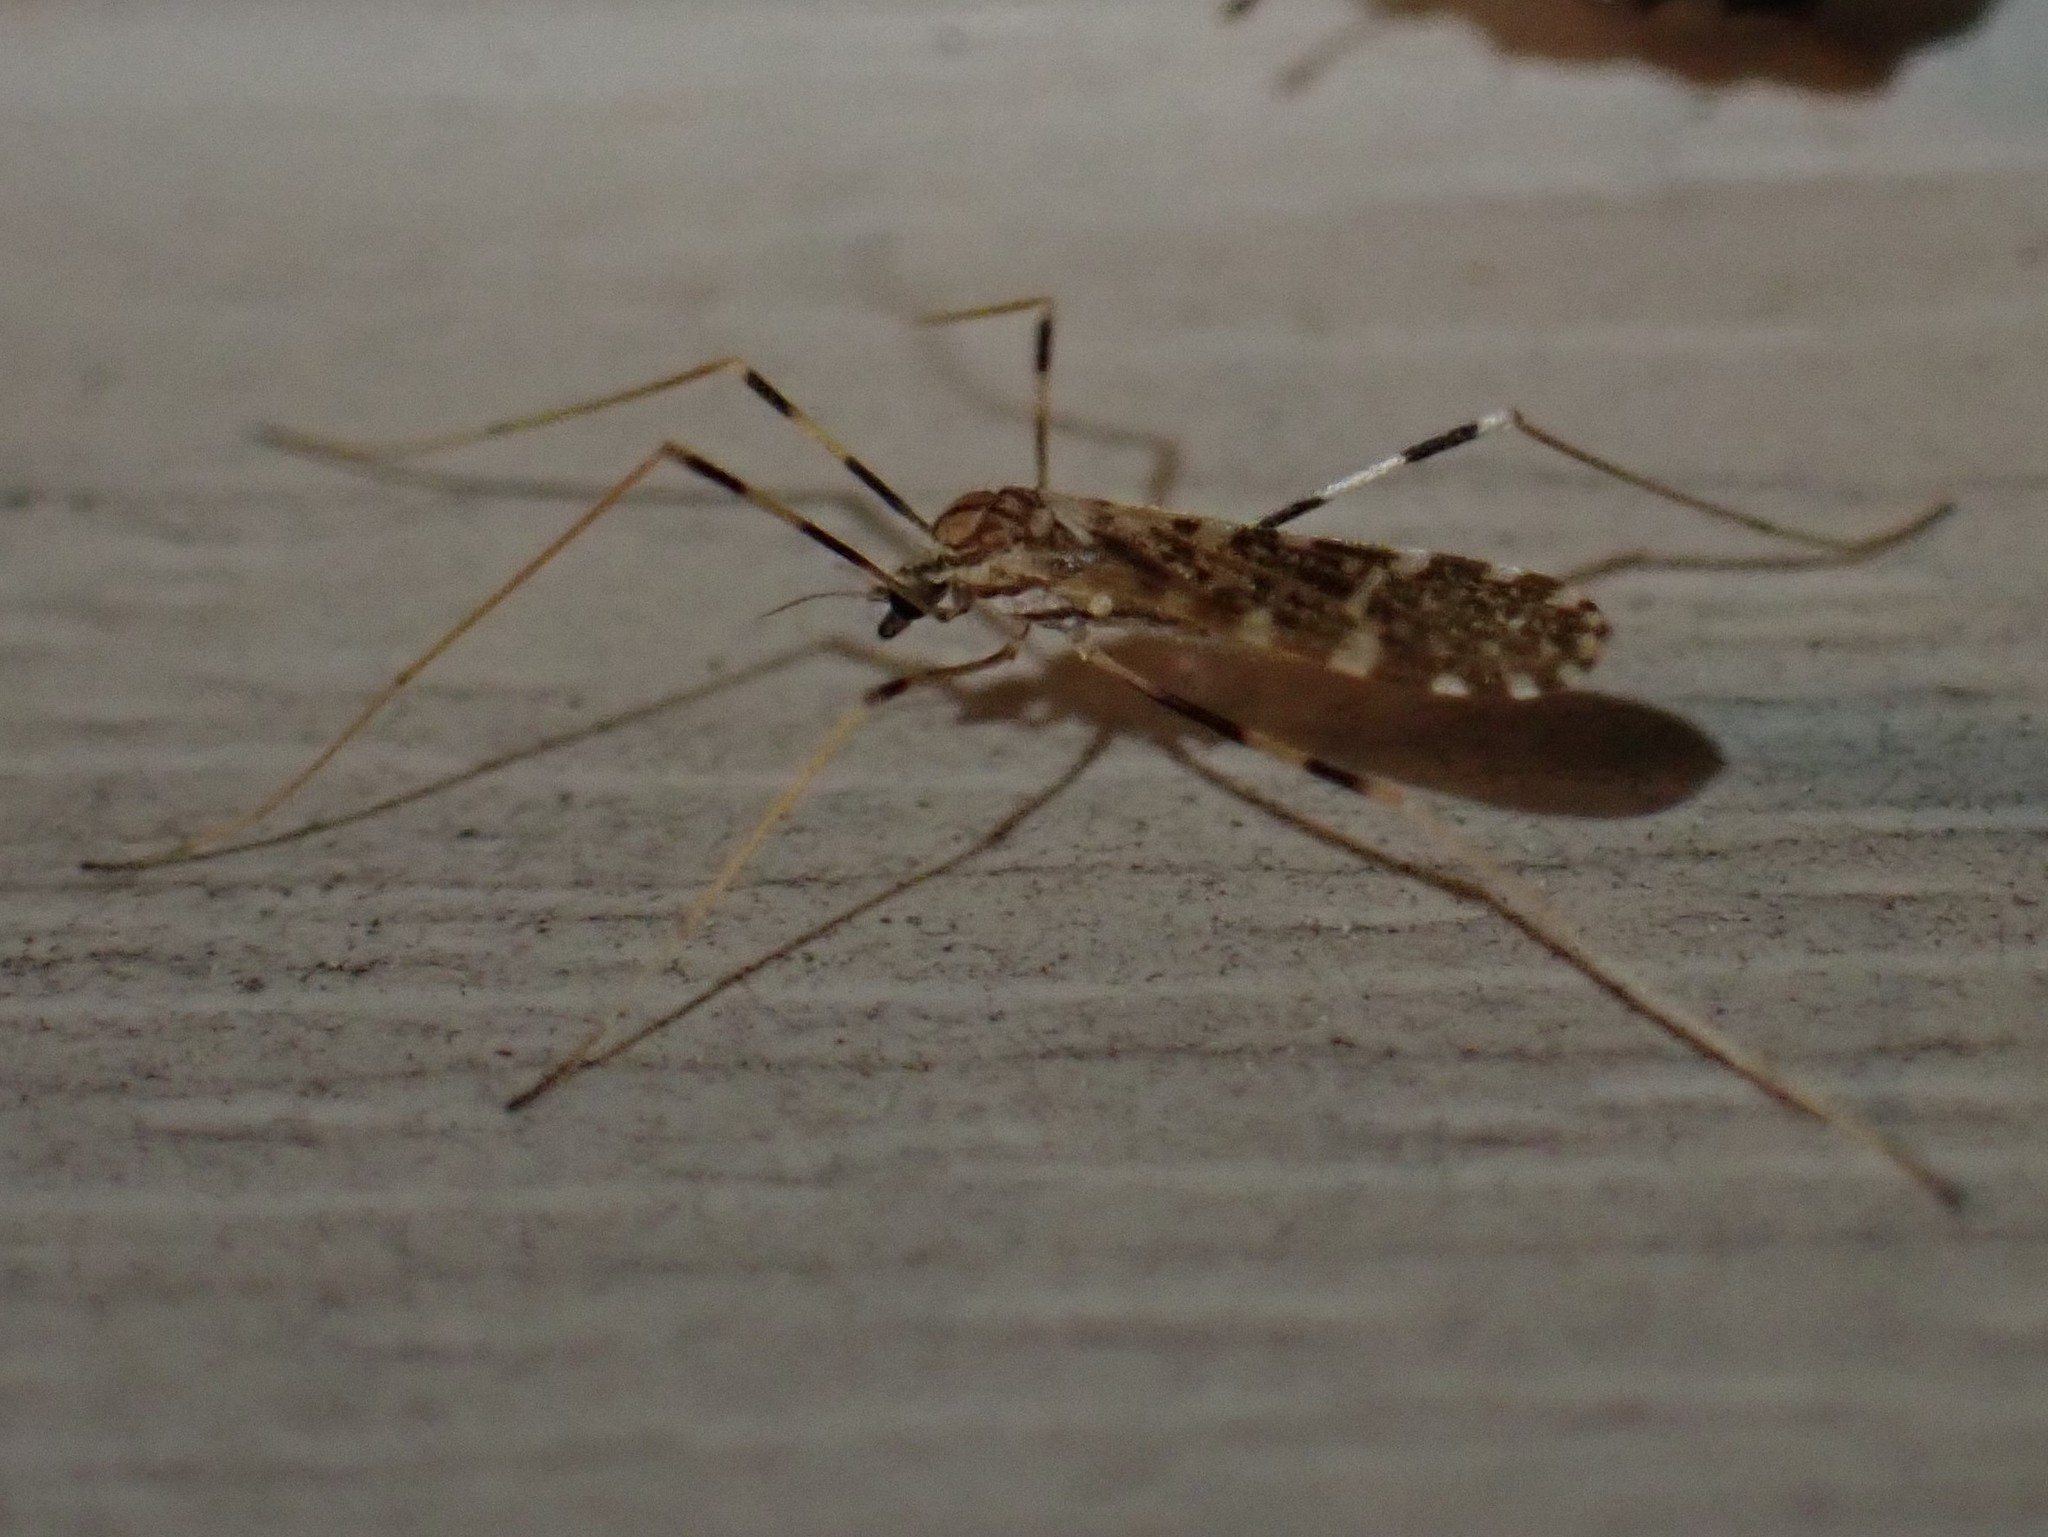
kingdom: Animalia
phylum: Arthropoda
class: Insecta
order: Diptera
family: Limoniidae
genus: Erioptera
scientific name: Erioptera caliptera
